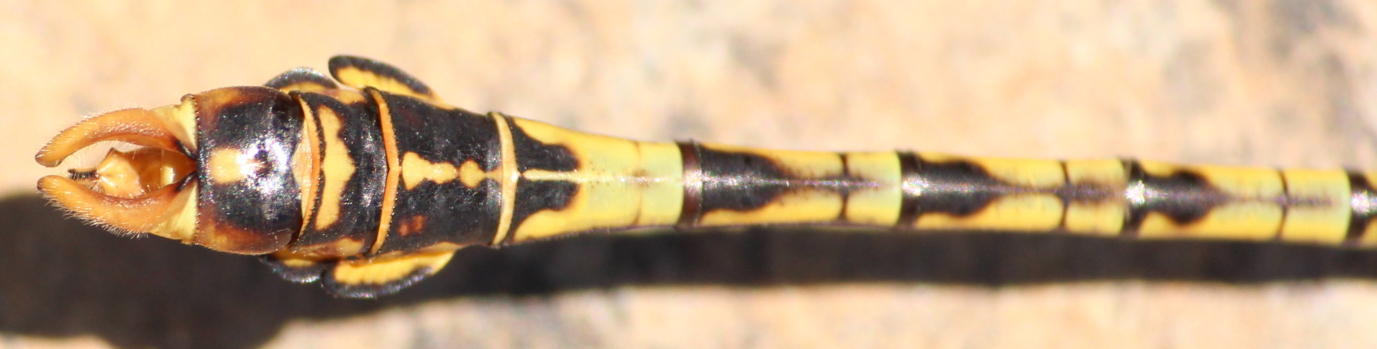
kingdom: Animalia
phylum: Arthropoda
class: Insecta
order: Odonata
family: Gomphidae
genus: Crenigomphus
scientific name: Crenigomphus hartmanni
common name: Clubbed talontail
